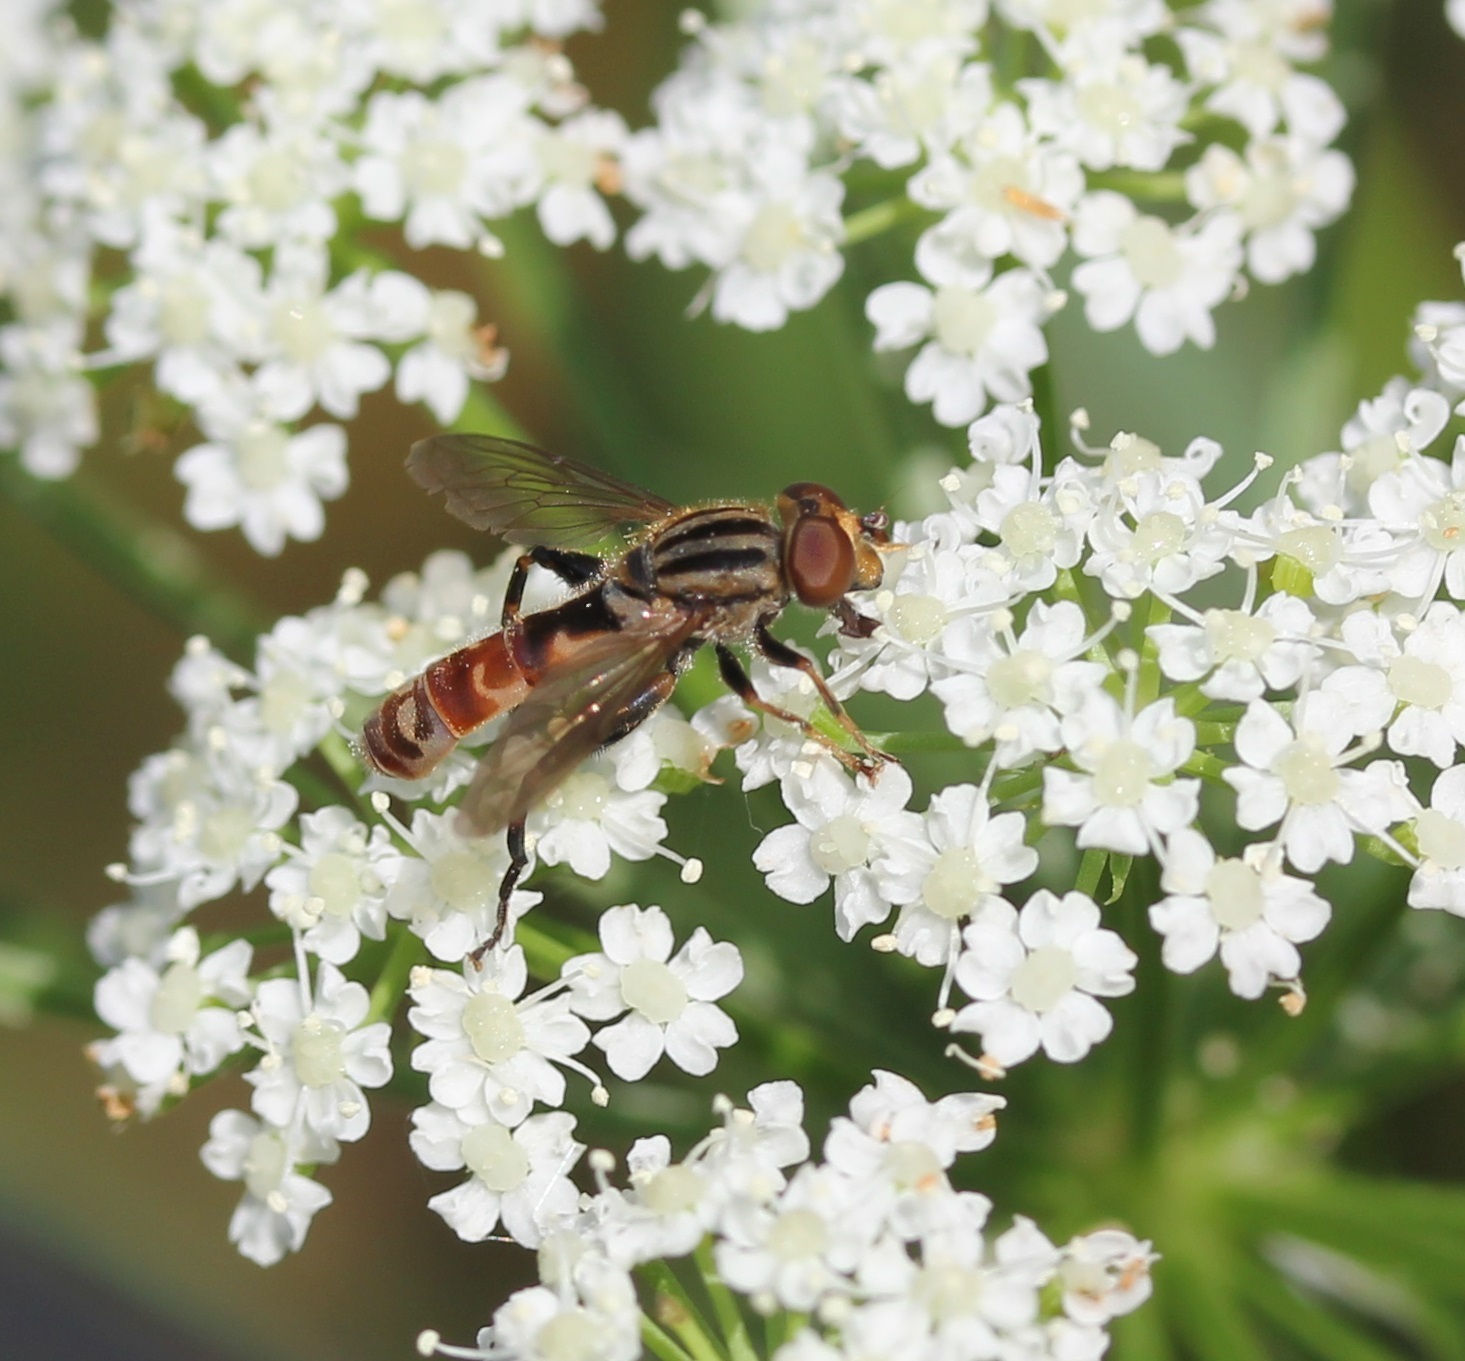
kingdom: Animalia
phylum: Arthropoda
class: Insecta
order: Diptera
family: Syrphidae
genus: Anasimyia
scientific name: Anasimyia distinctus
